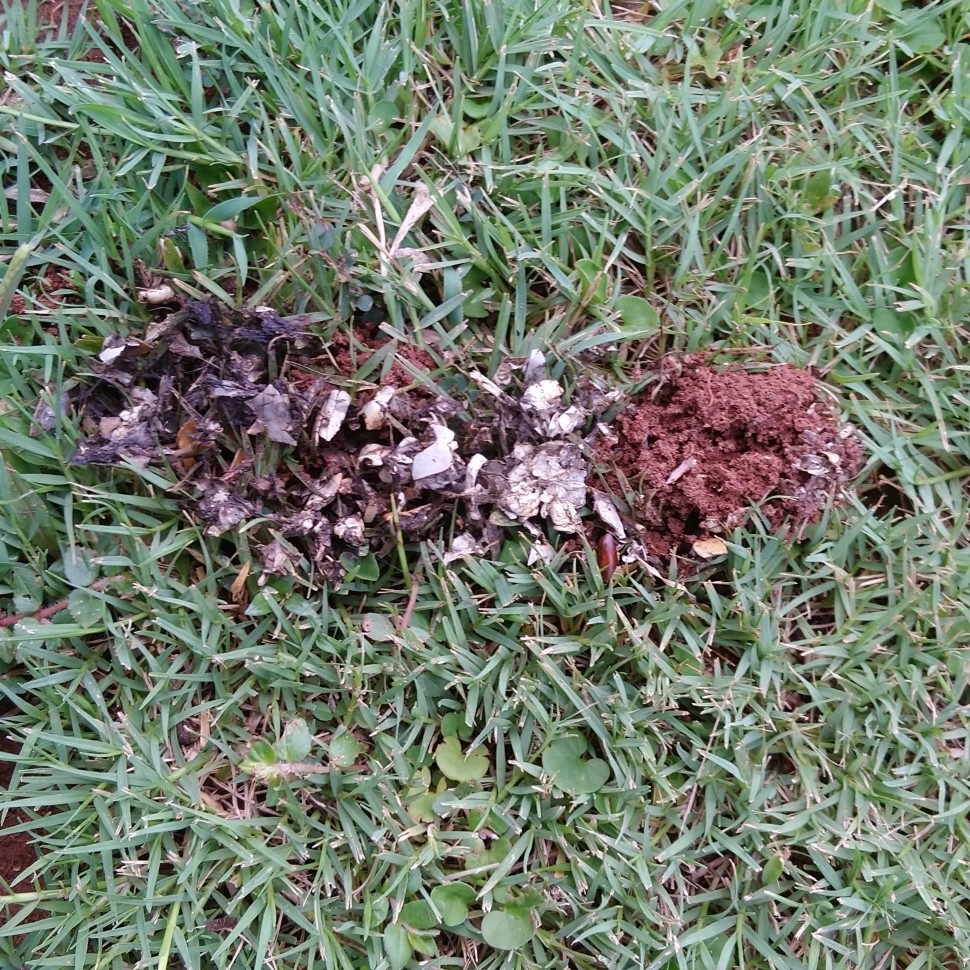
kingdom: Animalia
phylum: Chordata
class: Mammalia
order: Carnivora
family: Mustelidae
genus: Aonyx
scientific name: Aonyx capensis
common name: African clawless otter
